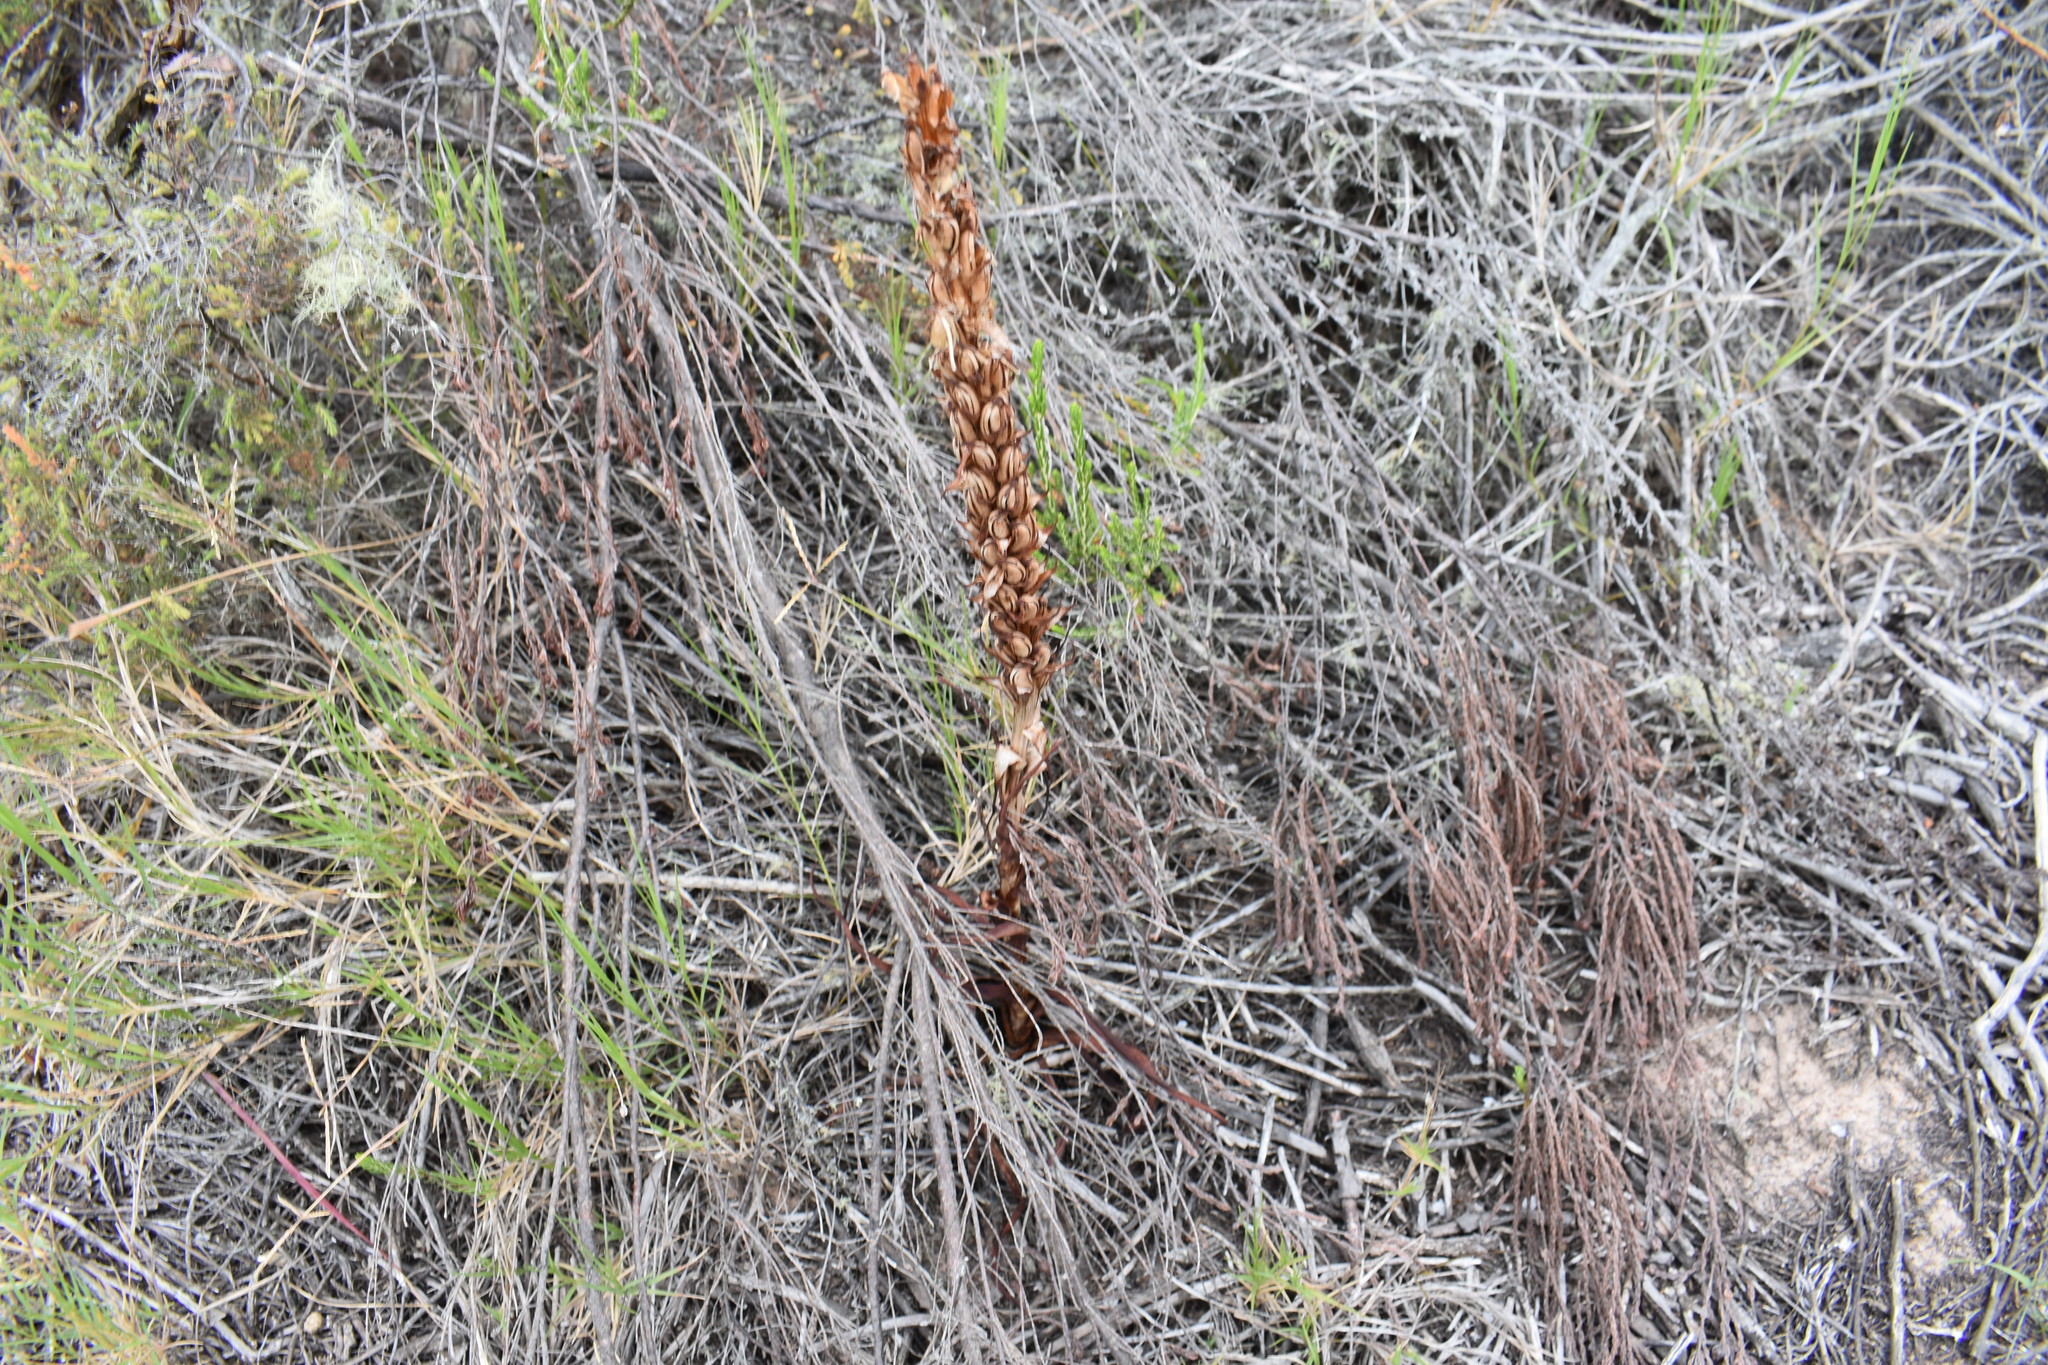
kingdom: Plantae
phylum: Tracheophyta
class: Liliopsida
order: Asparagales
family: Orchidaceae
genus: Disa
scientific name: Disa bracteata
